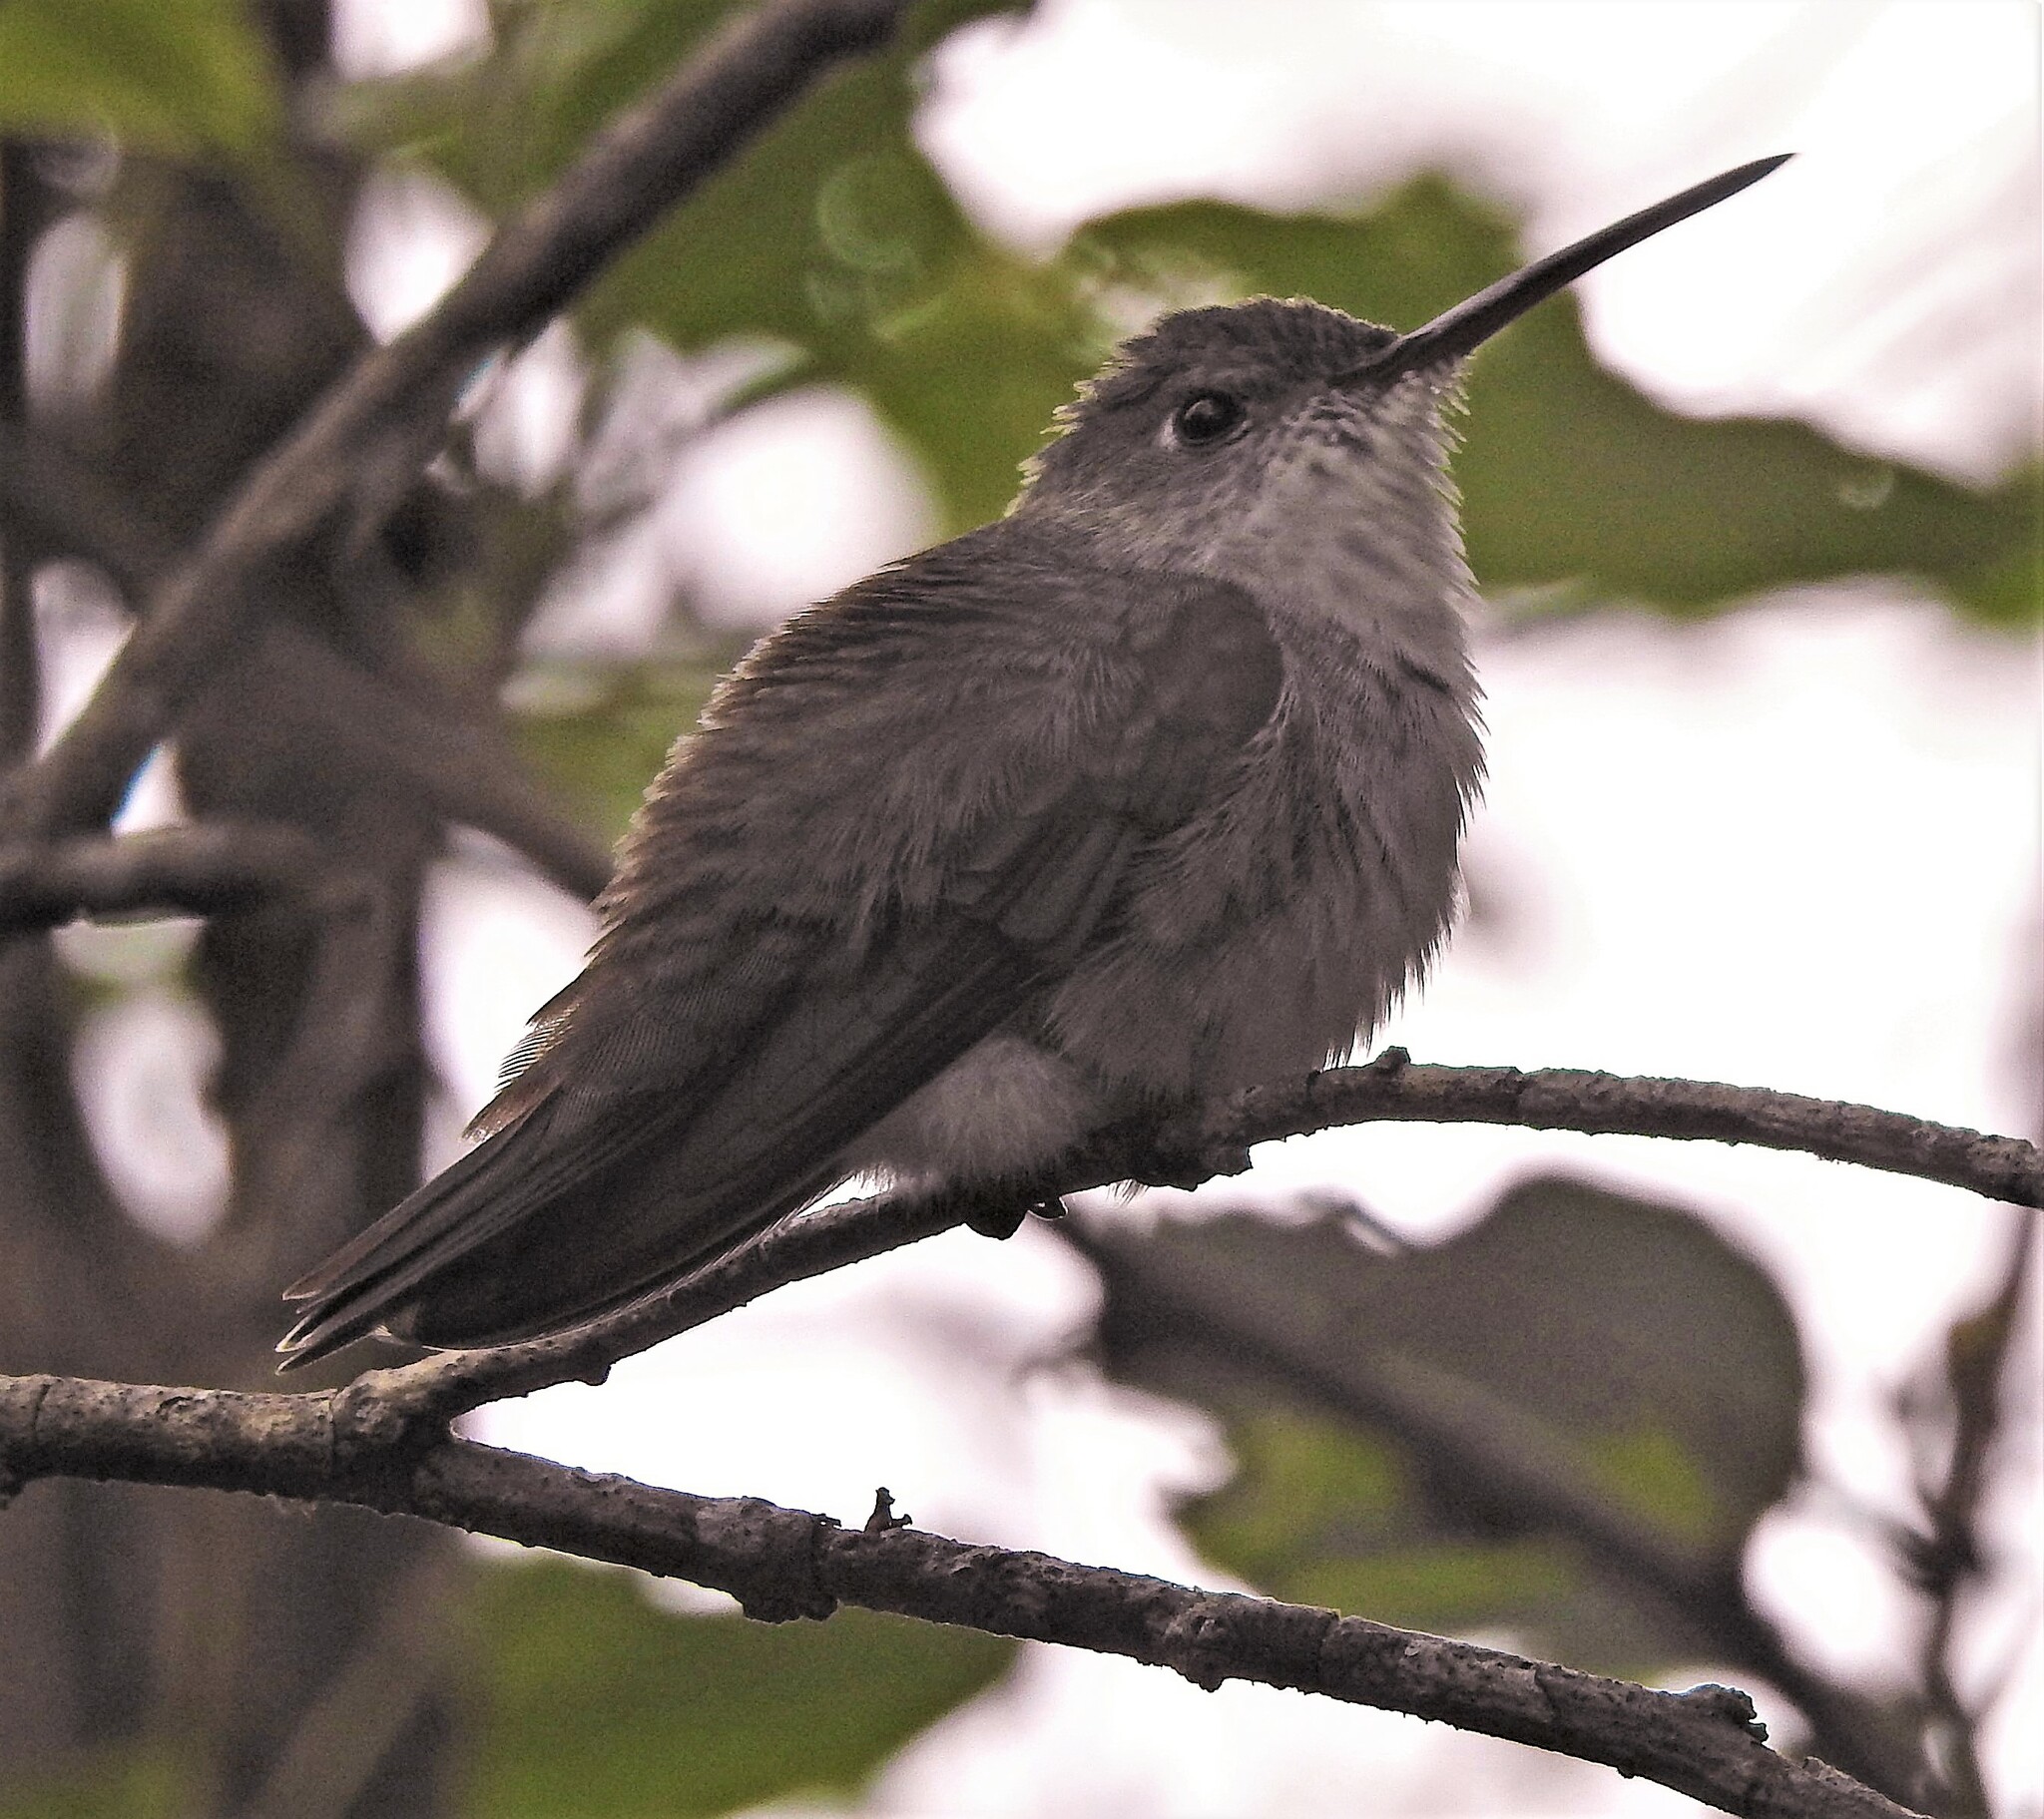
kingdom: Animalia
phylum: Chordata
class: Aves
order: Apodiformes
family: Trochilidae
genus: Elliotomyia
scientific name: Elliotomyia chionogaster
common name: White-bellied hummingbird
